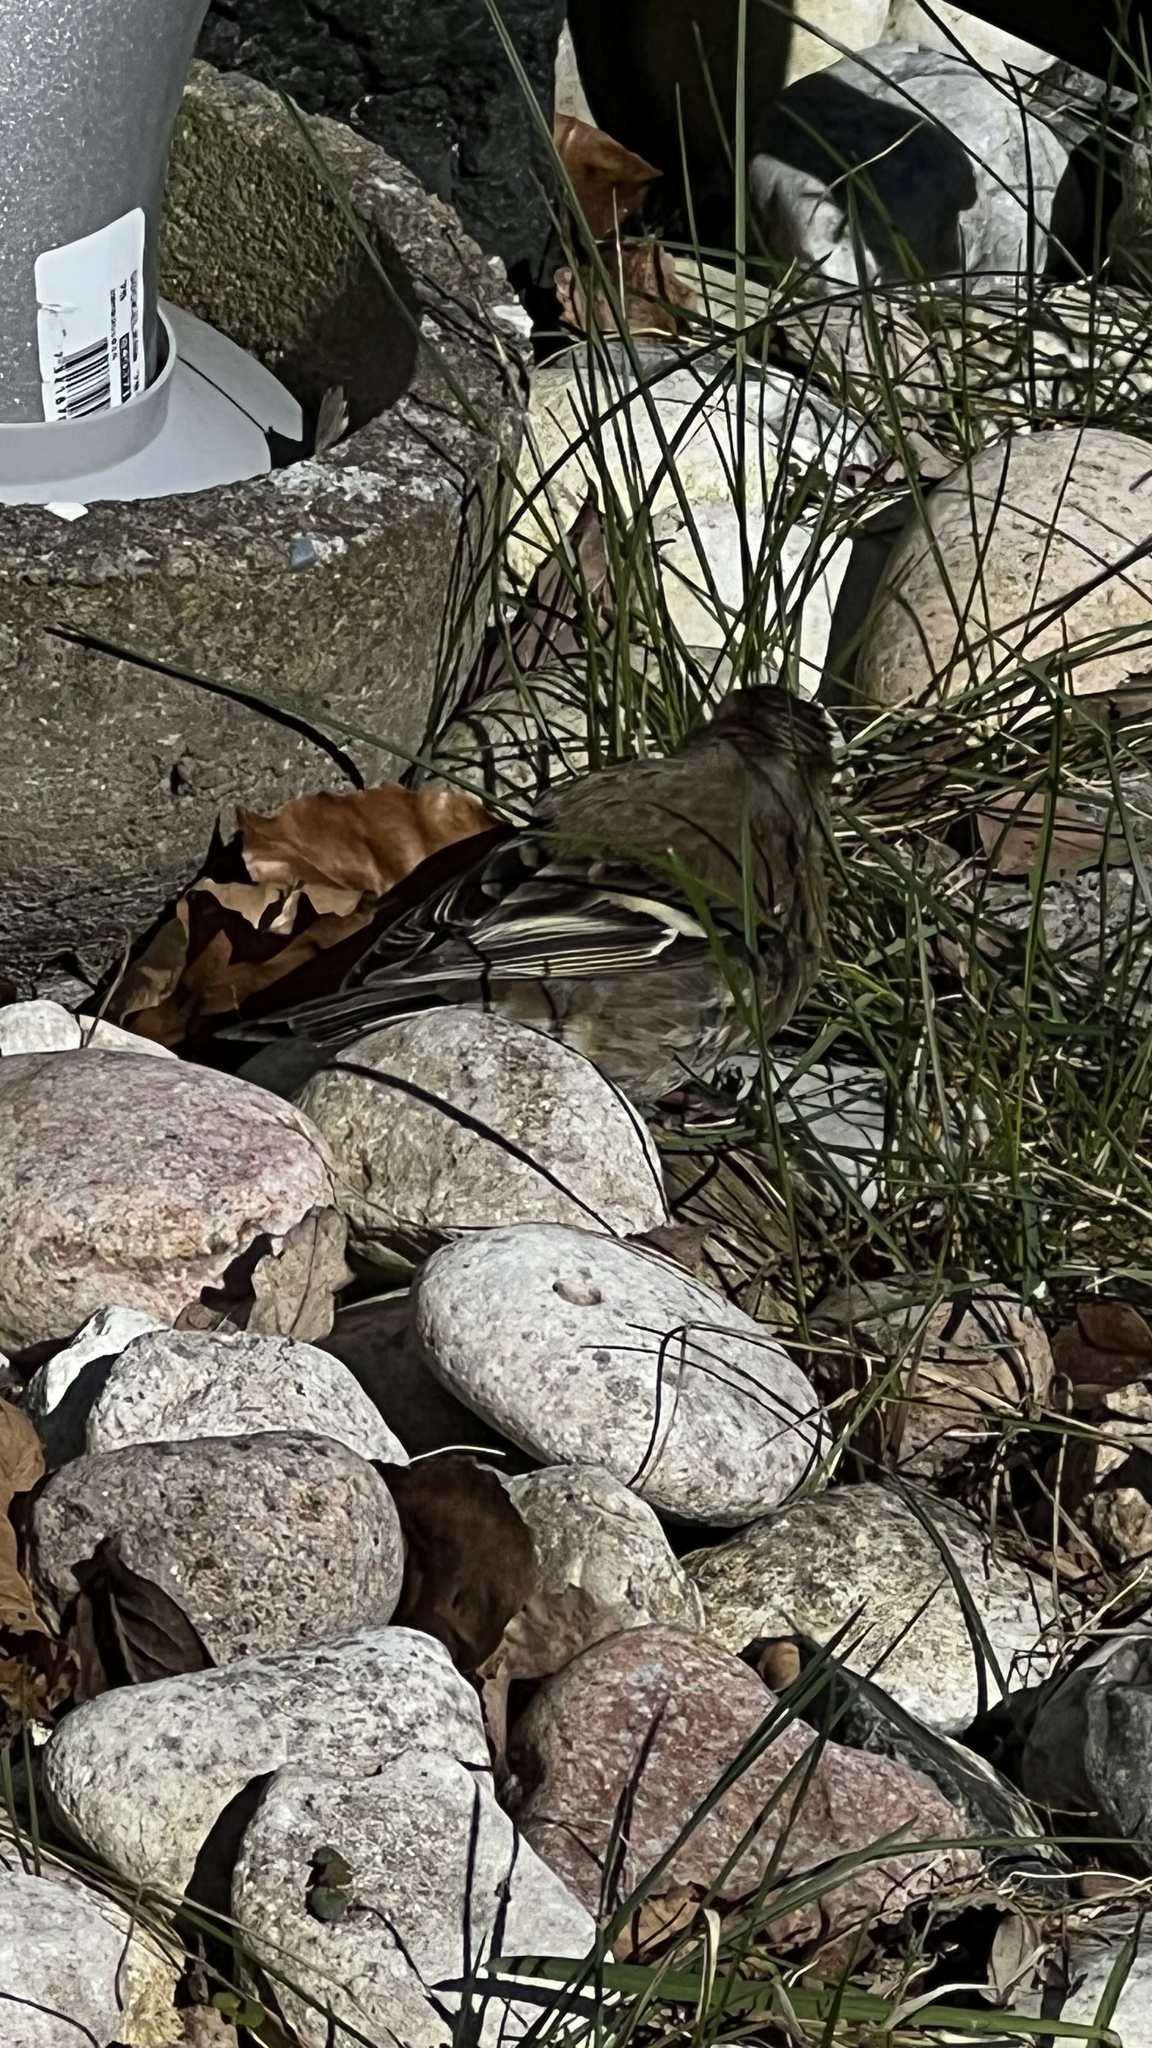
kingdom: Animalia
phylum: Chordata
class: Aves
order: Passeriformes
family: Fringillidae
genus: Fringilla
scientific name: Fringilla coelebs
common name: Common chaffinch
